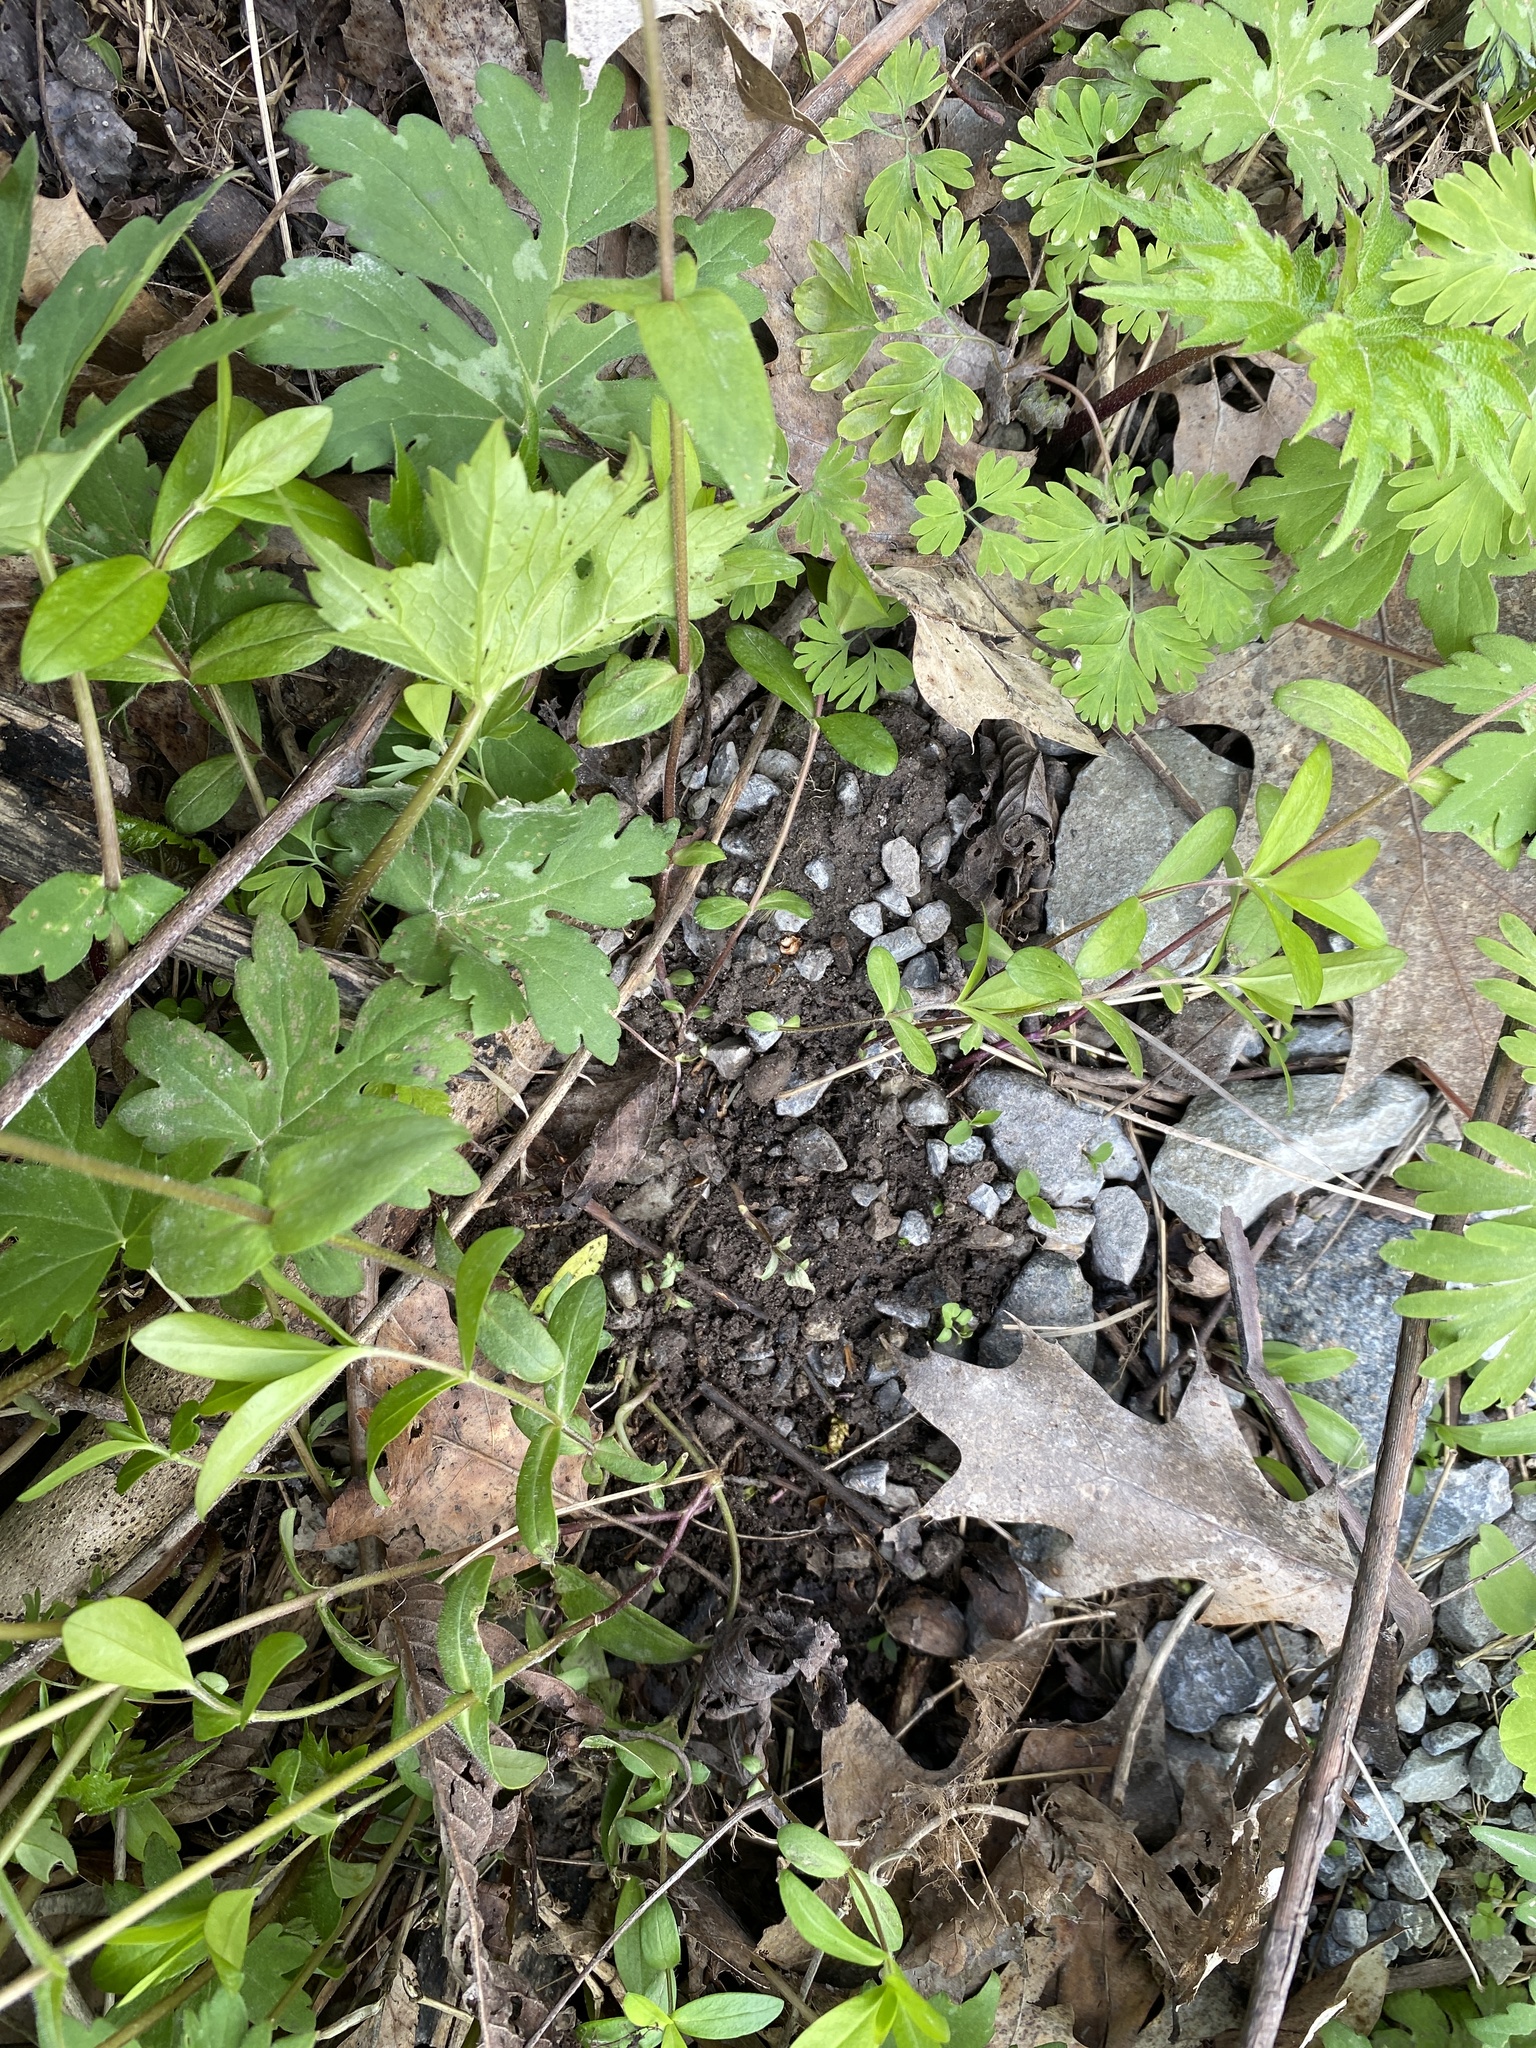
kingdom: Plantae
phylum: Tracheophyta
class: Magnoliopsida
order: Ericales
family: Polemoniaceae
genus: Phlox
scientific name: Phlox divaricata
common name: Blue phlox
